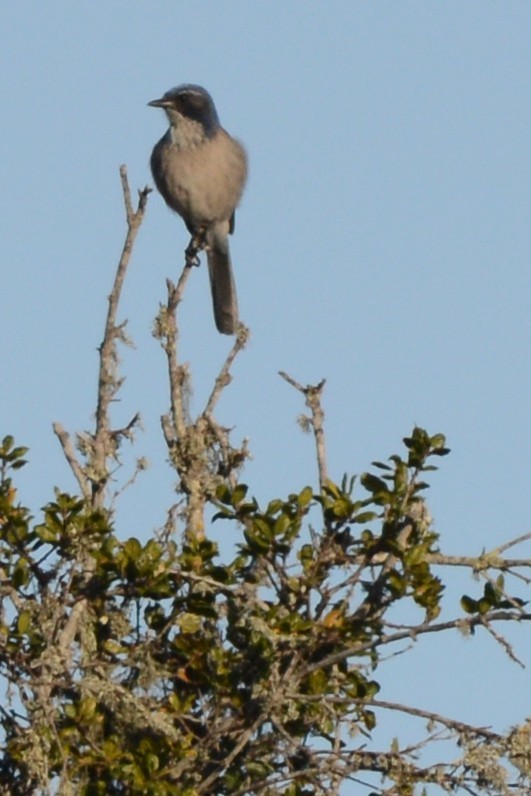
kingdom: Animalia
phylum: Chordata
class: Aves
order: Passeriformes
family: Corvidae
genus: Aphelocoma
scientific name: Aphelocoma californica
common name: California scrub-jay
